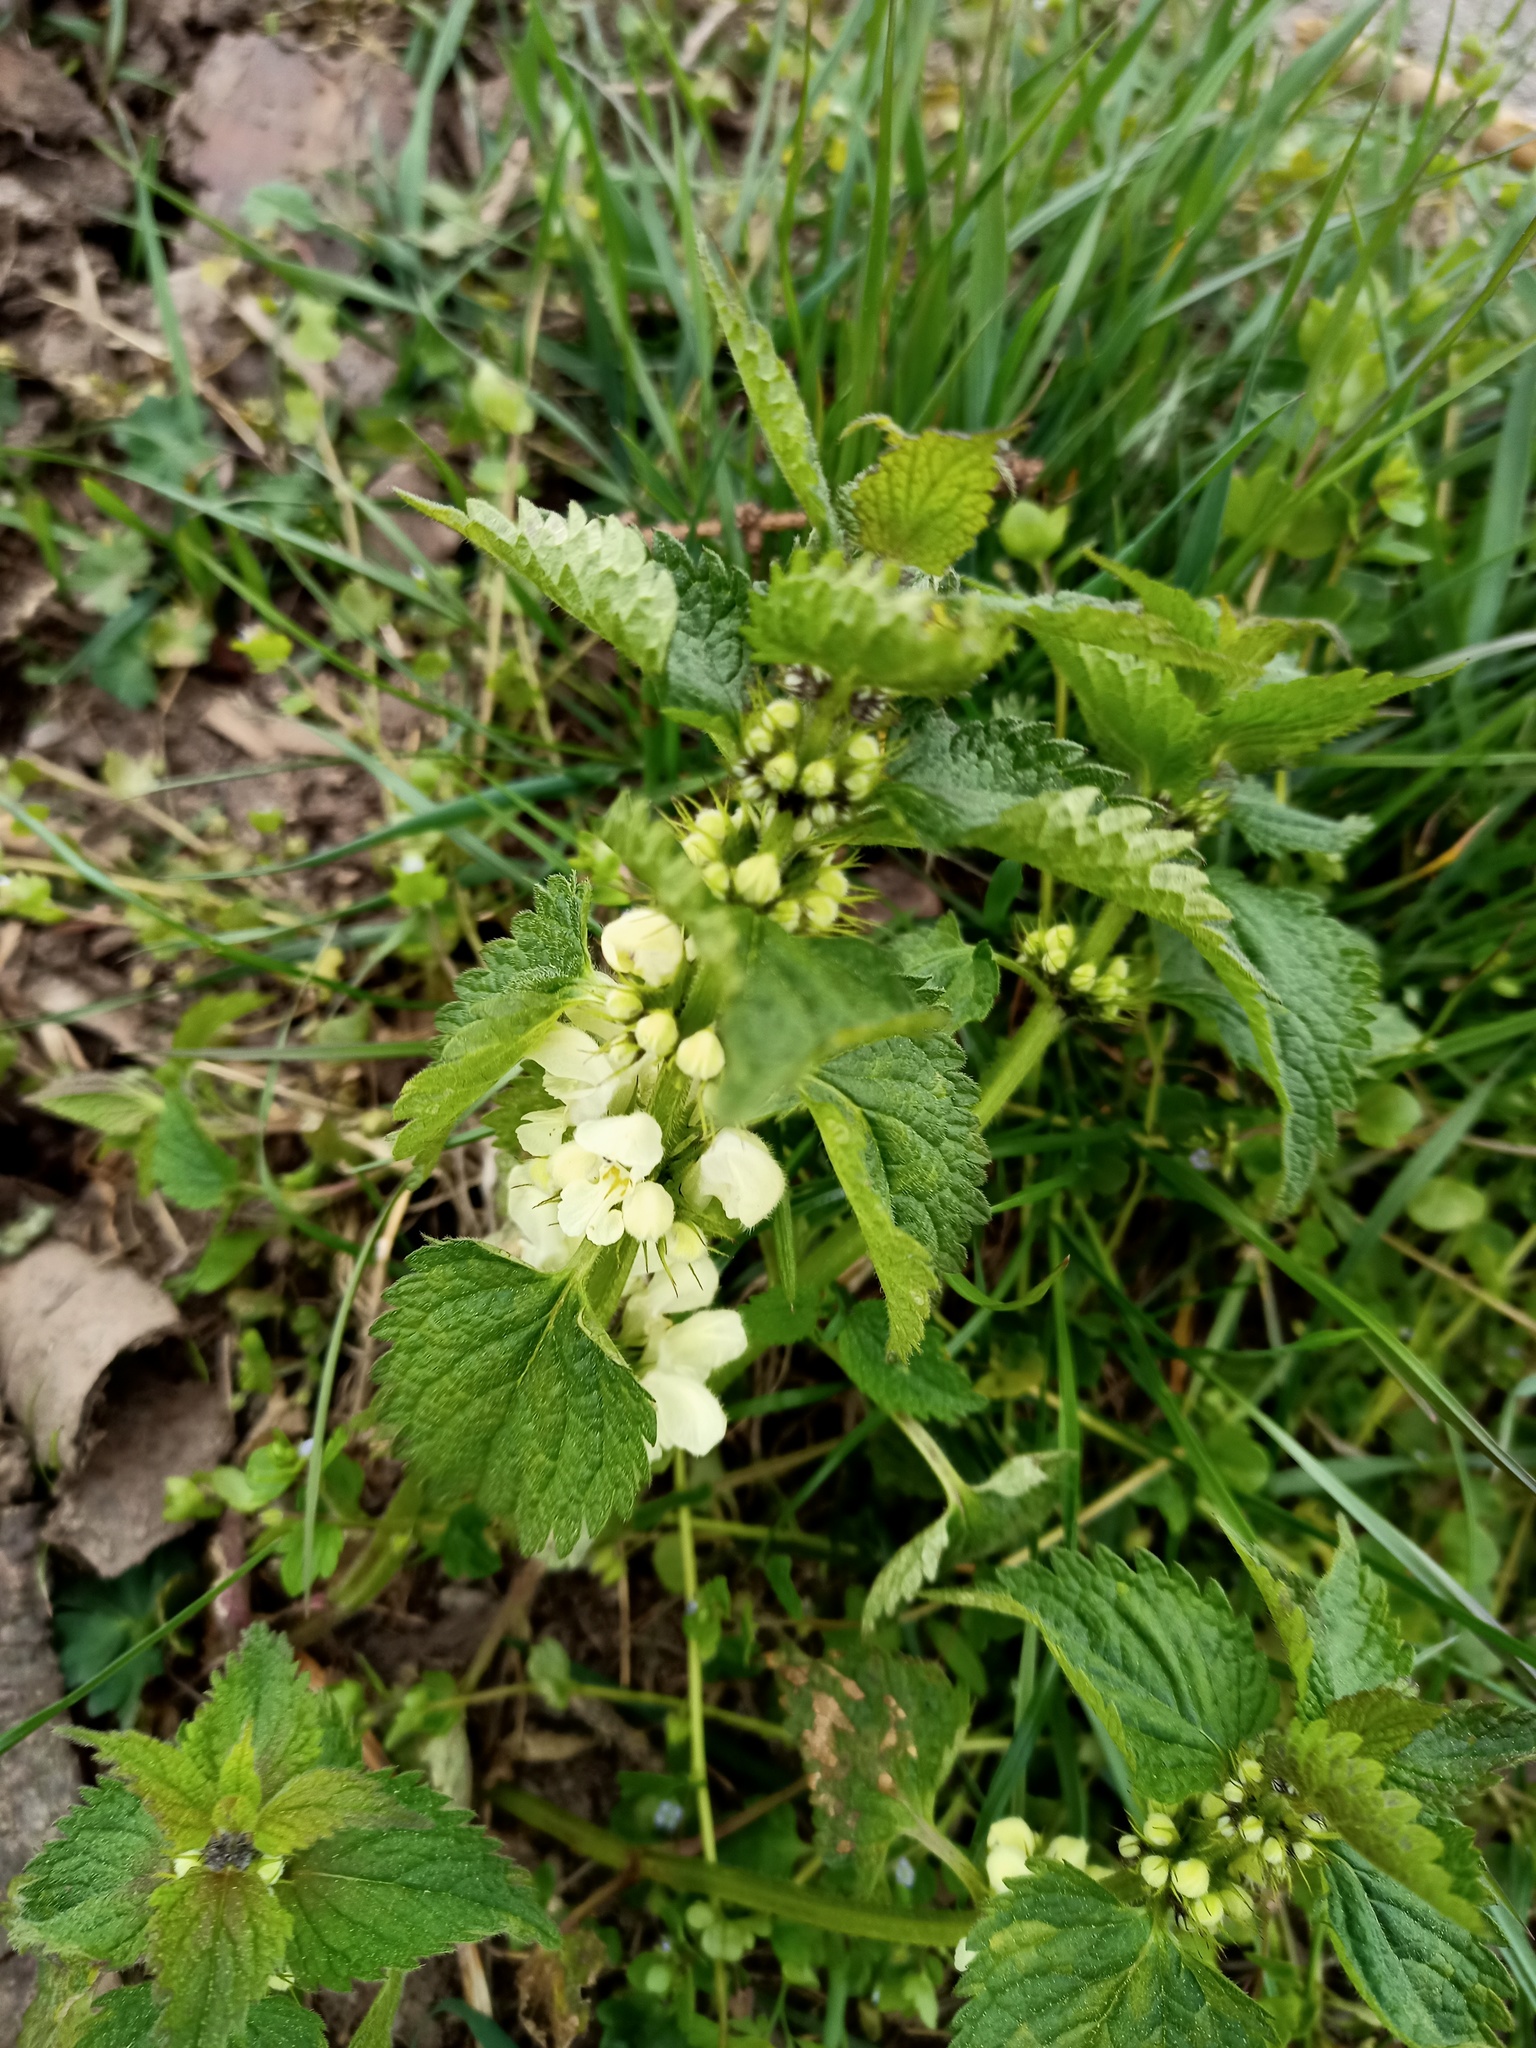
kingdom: Plantae
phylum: Tracheophyta
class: Magnoliopsida
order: Lamiales
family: Lamiaceae
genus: Lamium
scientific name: Lamium album
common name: White dead-nettle
